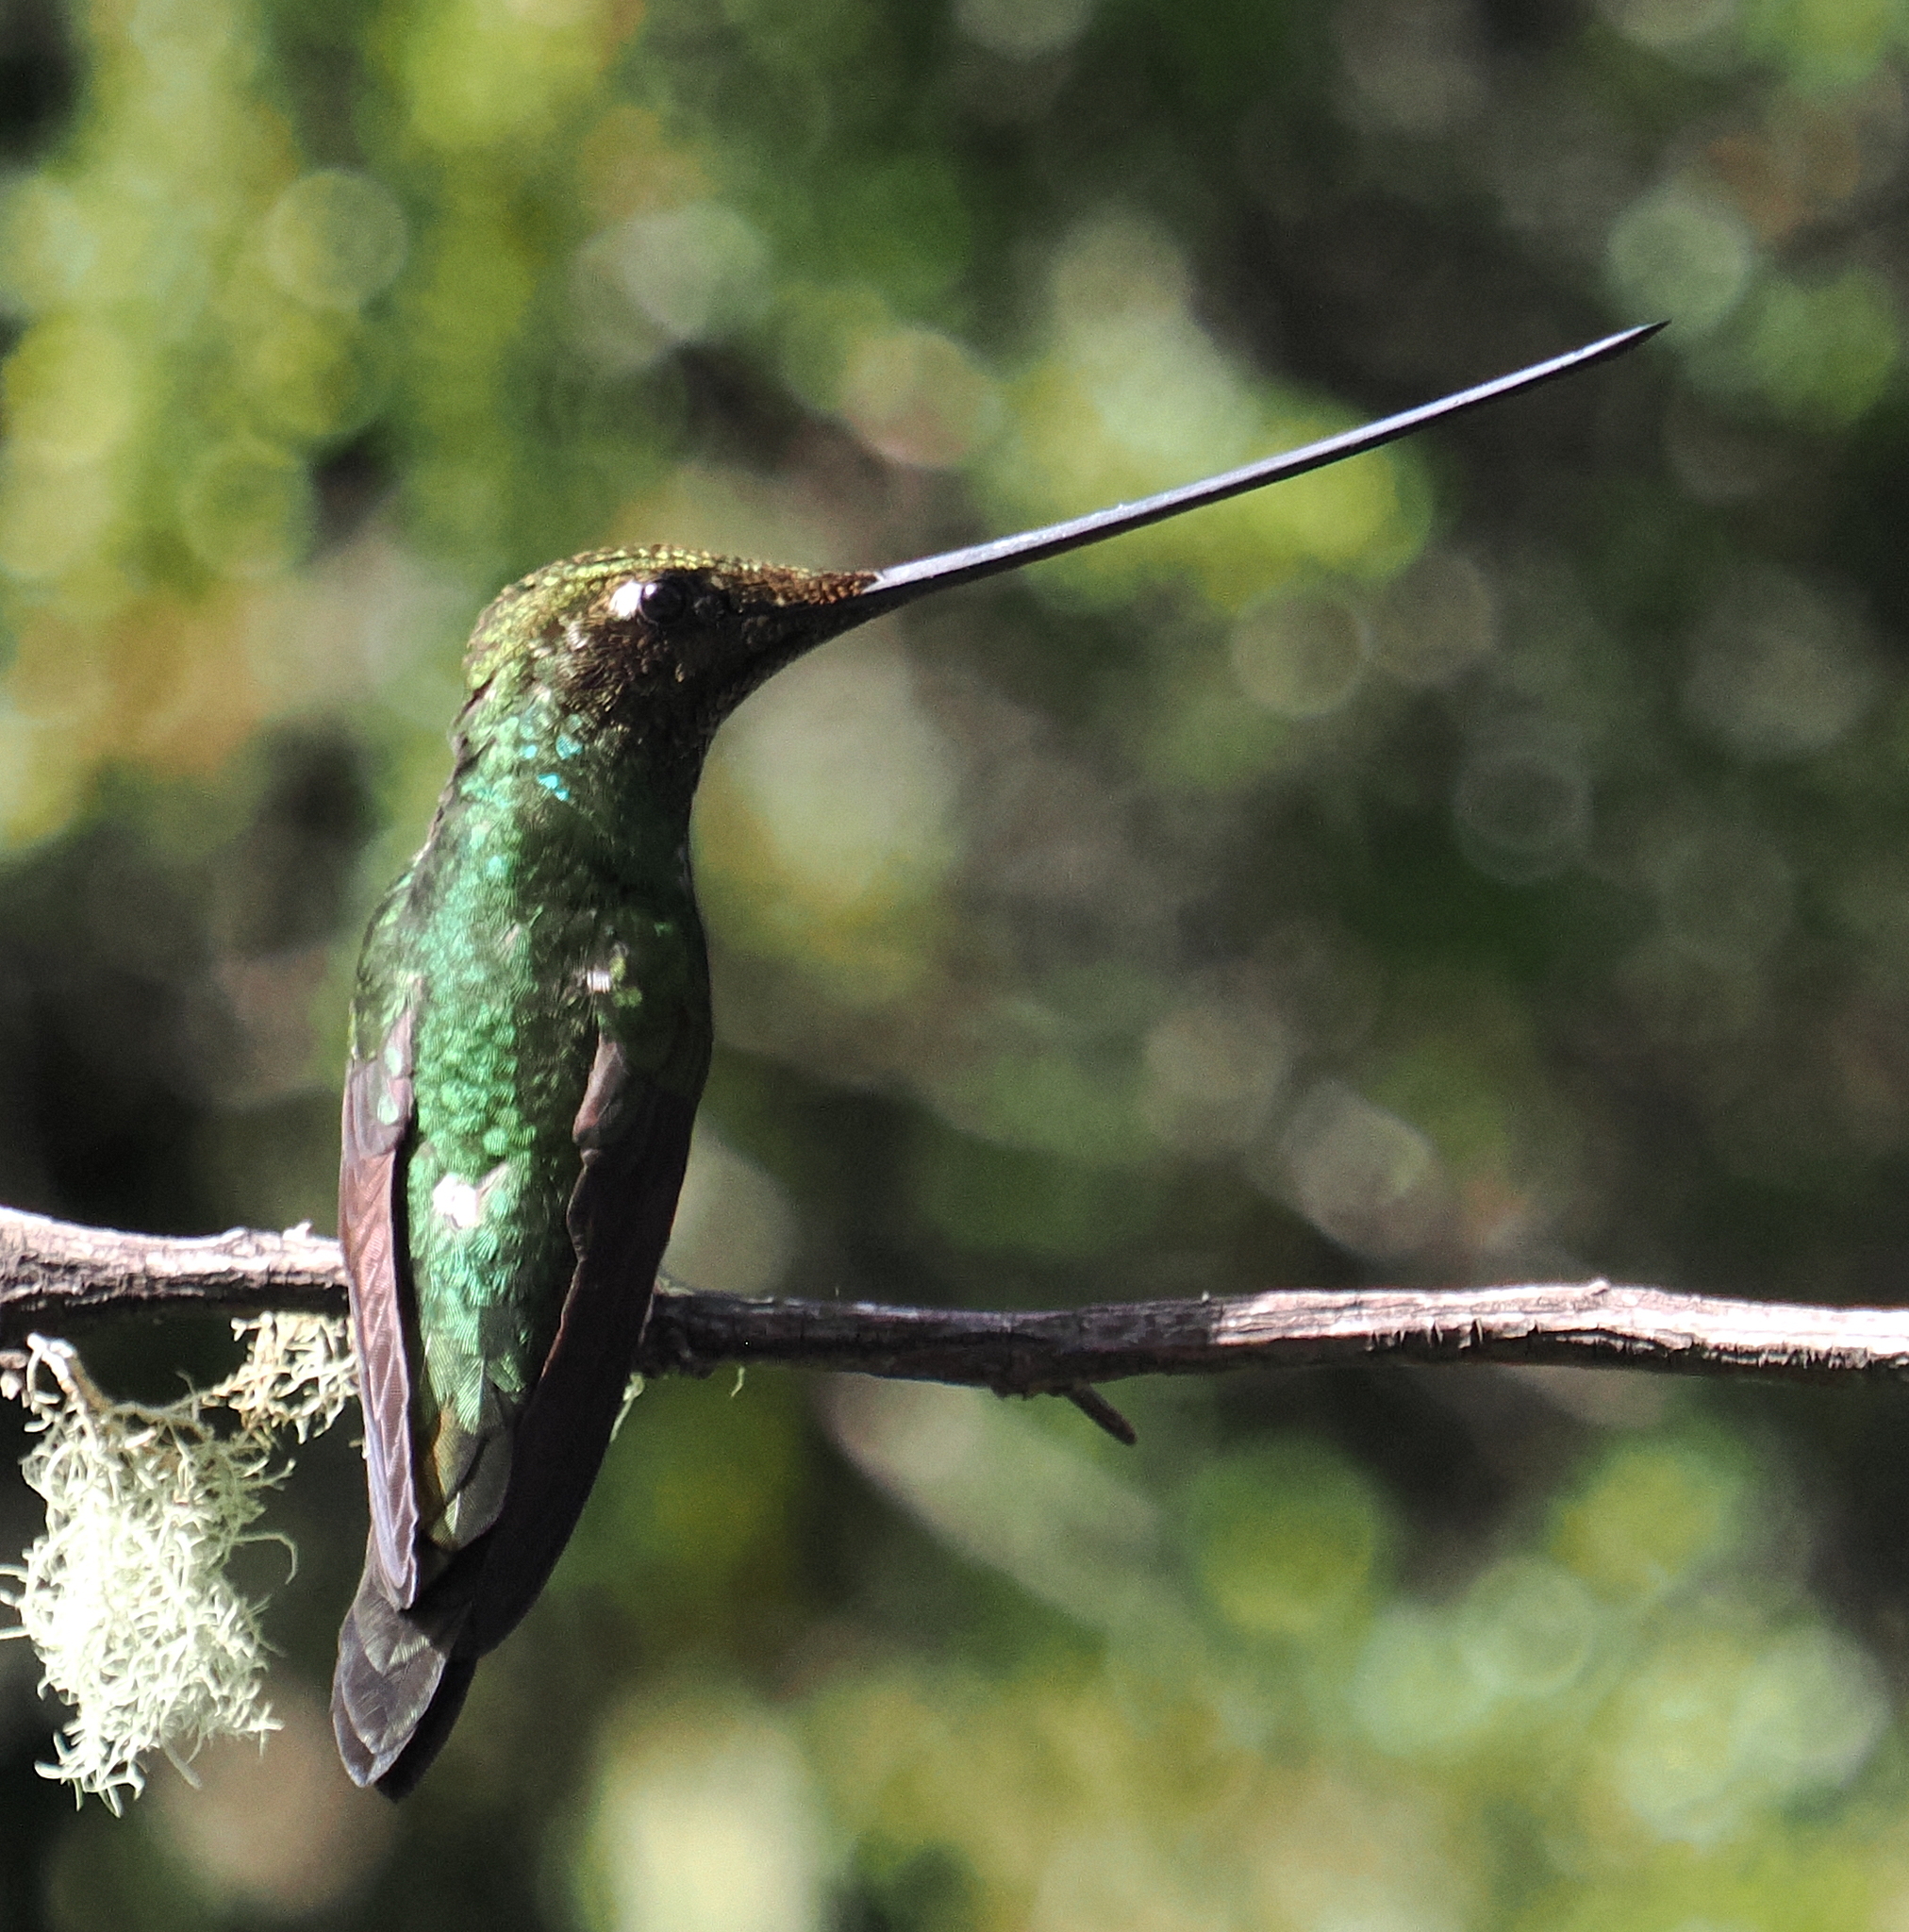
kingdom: Animalia
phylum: Chordata
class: Aves
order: Apodiformes
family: Trochilidae
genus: Ensifera
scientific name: Ensifera ensifera
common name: Sword-billed hummingbird
